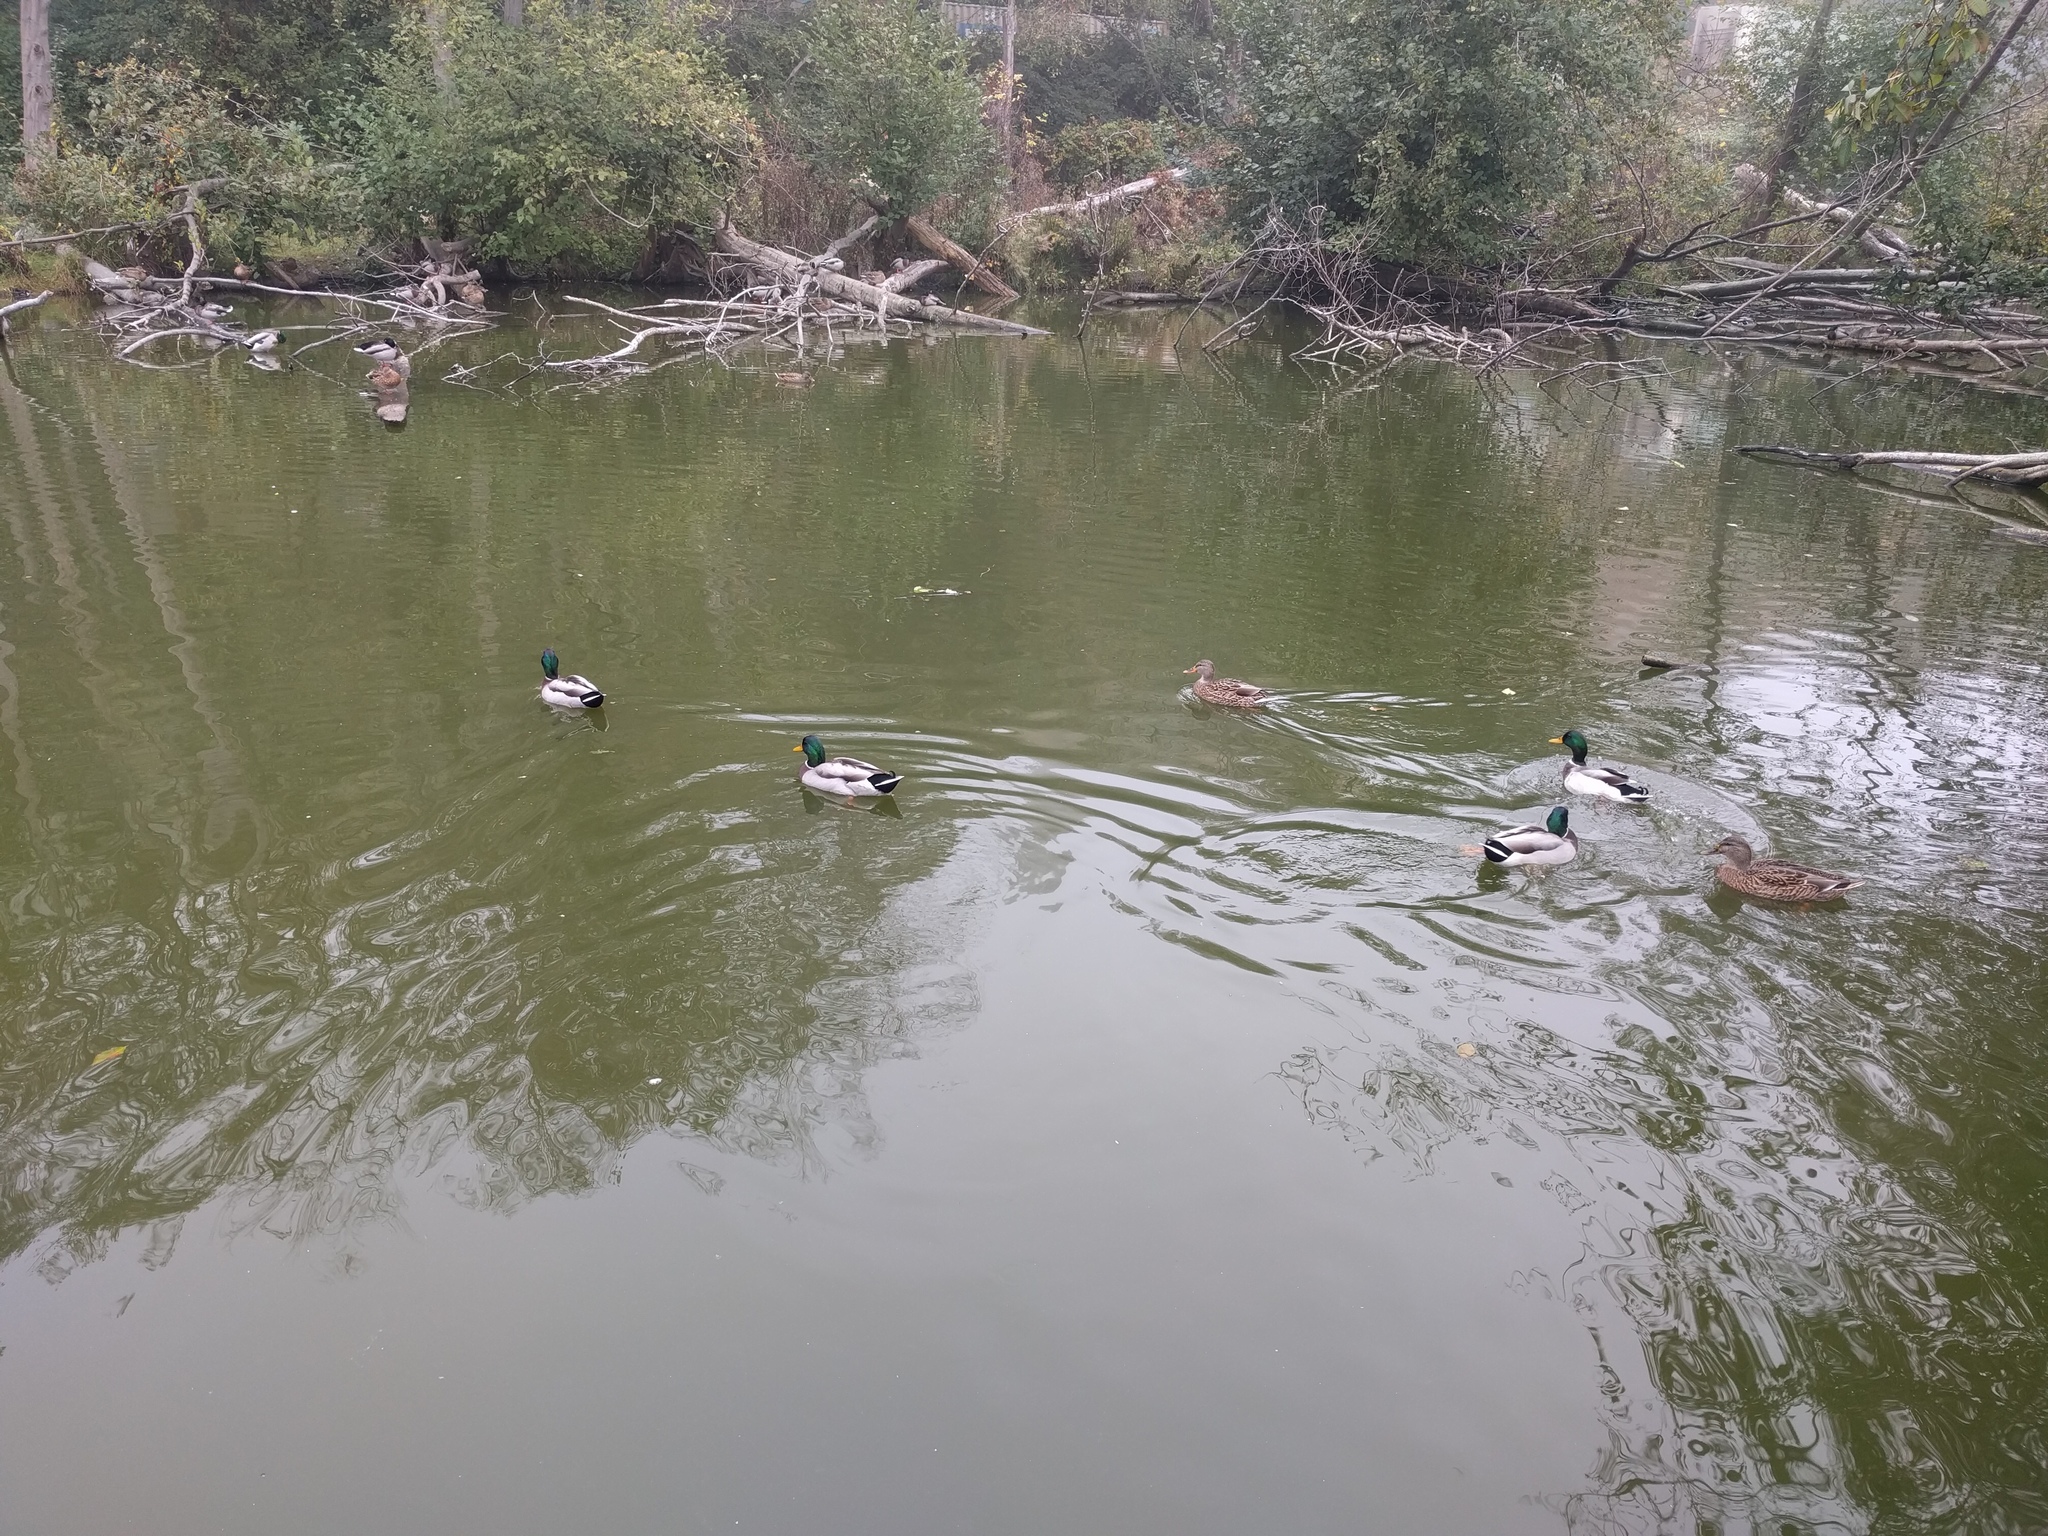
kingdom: Animalia
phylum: Chordata
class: Aves
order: Anseriformes
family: Anatidae
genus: Anas
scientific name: Anas platyrhynchos
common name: Mallard
